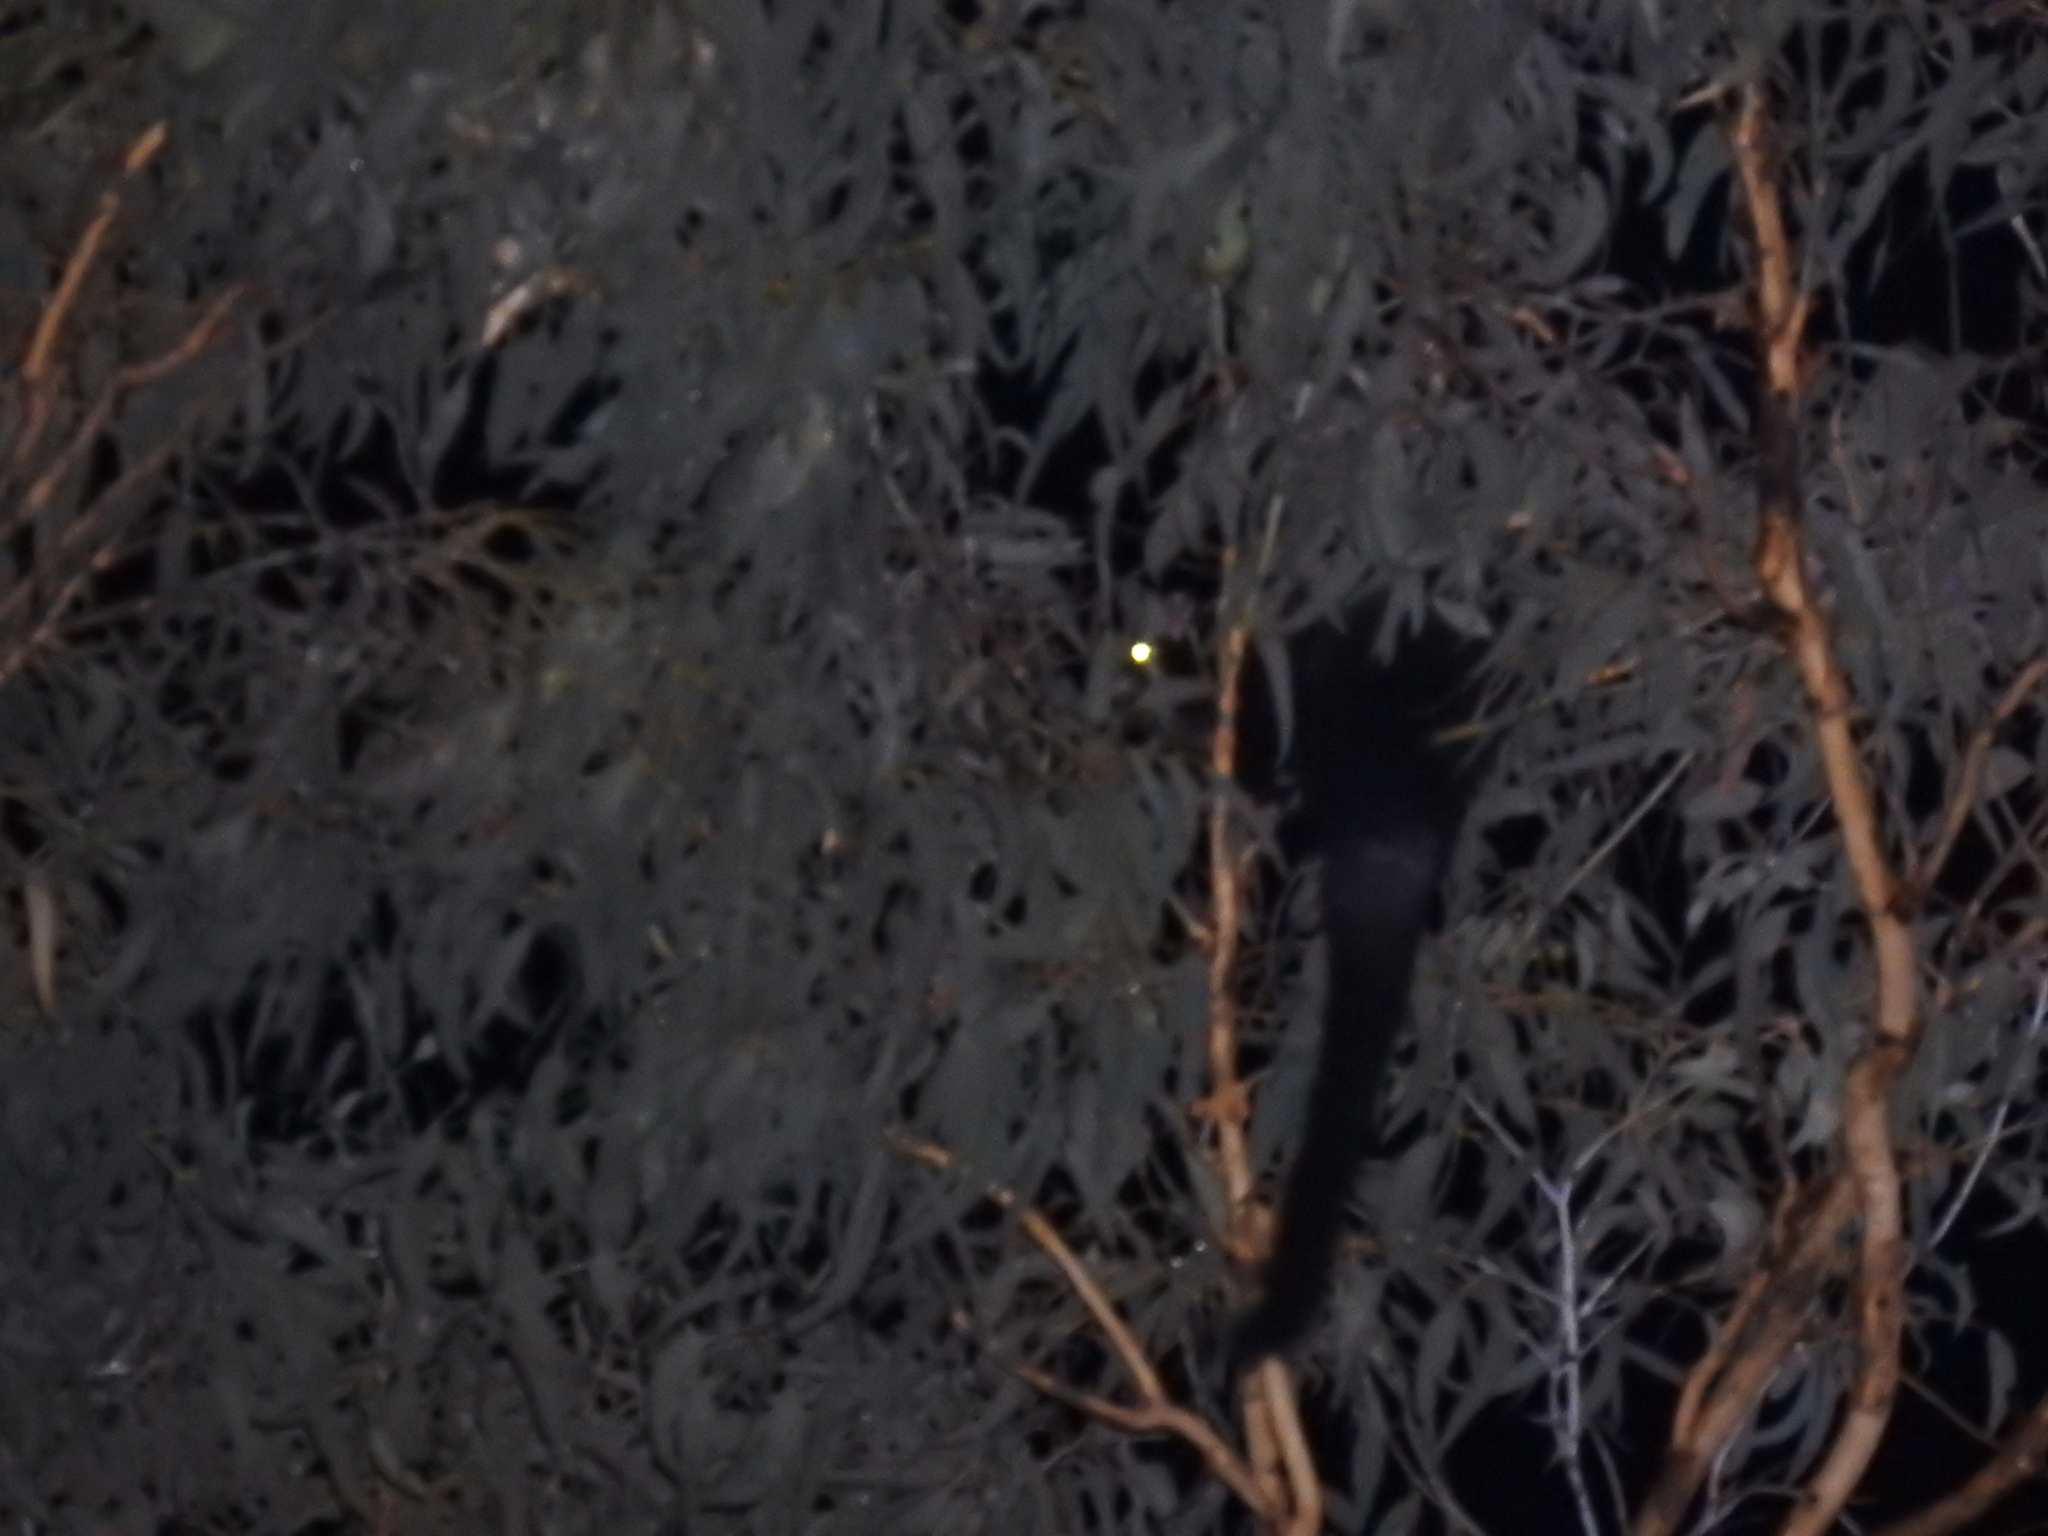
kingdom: Animalia
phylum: Chordata
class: Mammalia
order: Diprotodontia
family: Pseudocheiridae
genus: Petauroides
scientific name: Petauroides volans
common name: Greater glider
